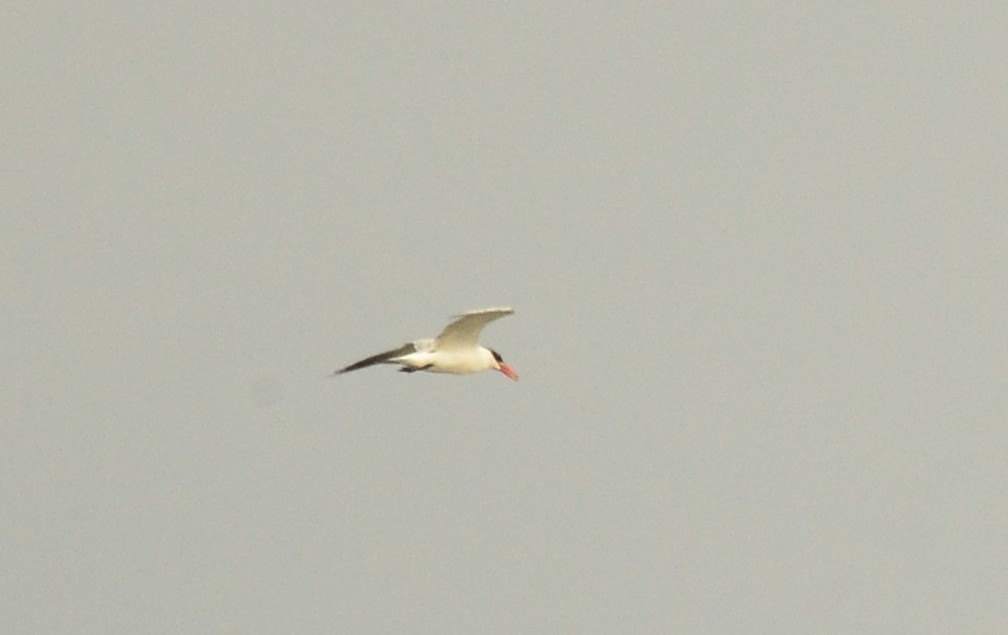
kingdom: Animalia
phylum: Chordata
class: Aves
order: Charadriiformes
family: Laridae
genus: Hydroprogne
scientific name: Hydroprogne caspia
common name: Caspian tern
